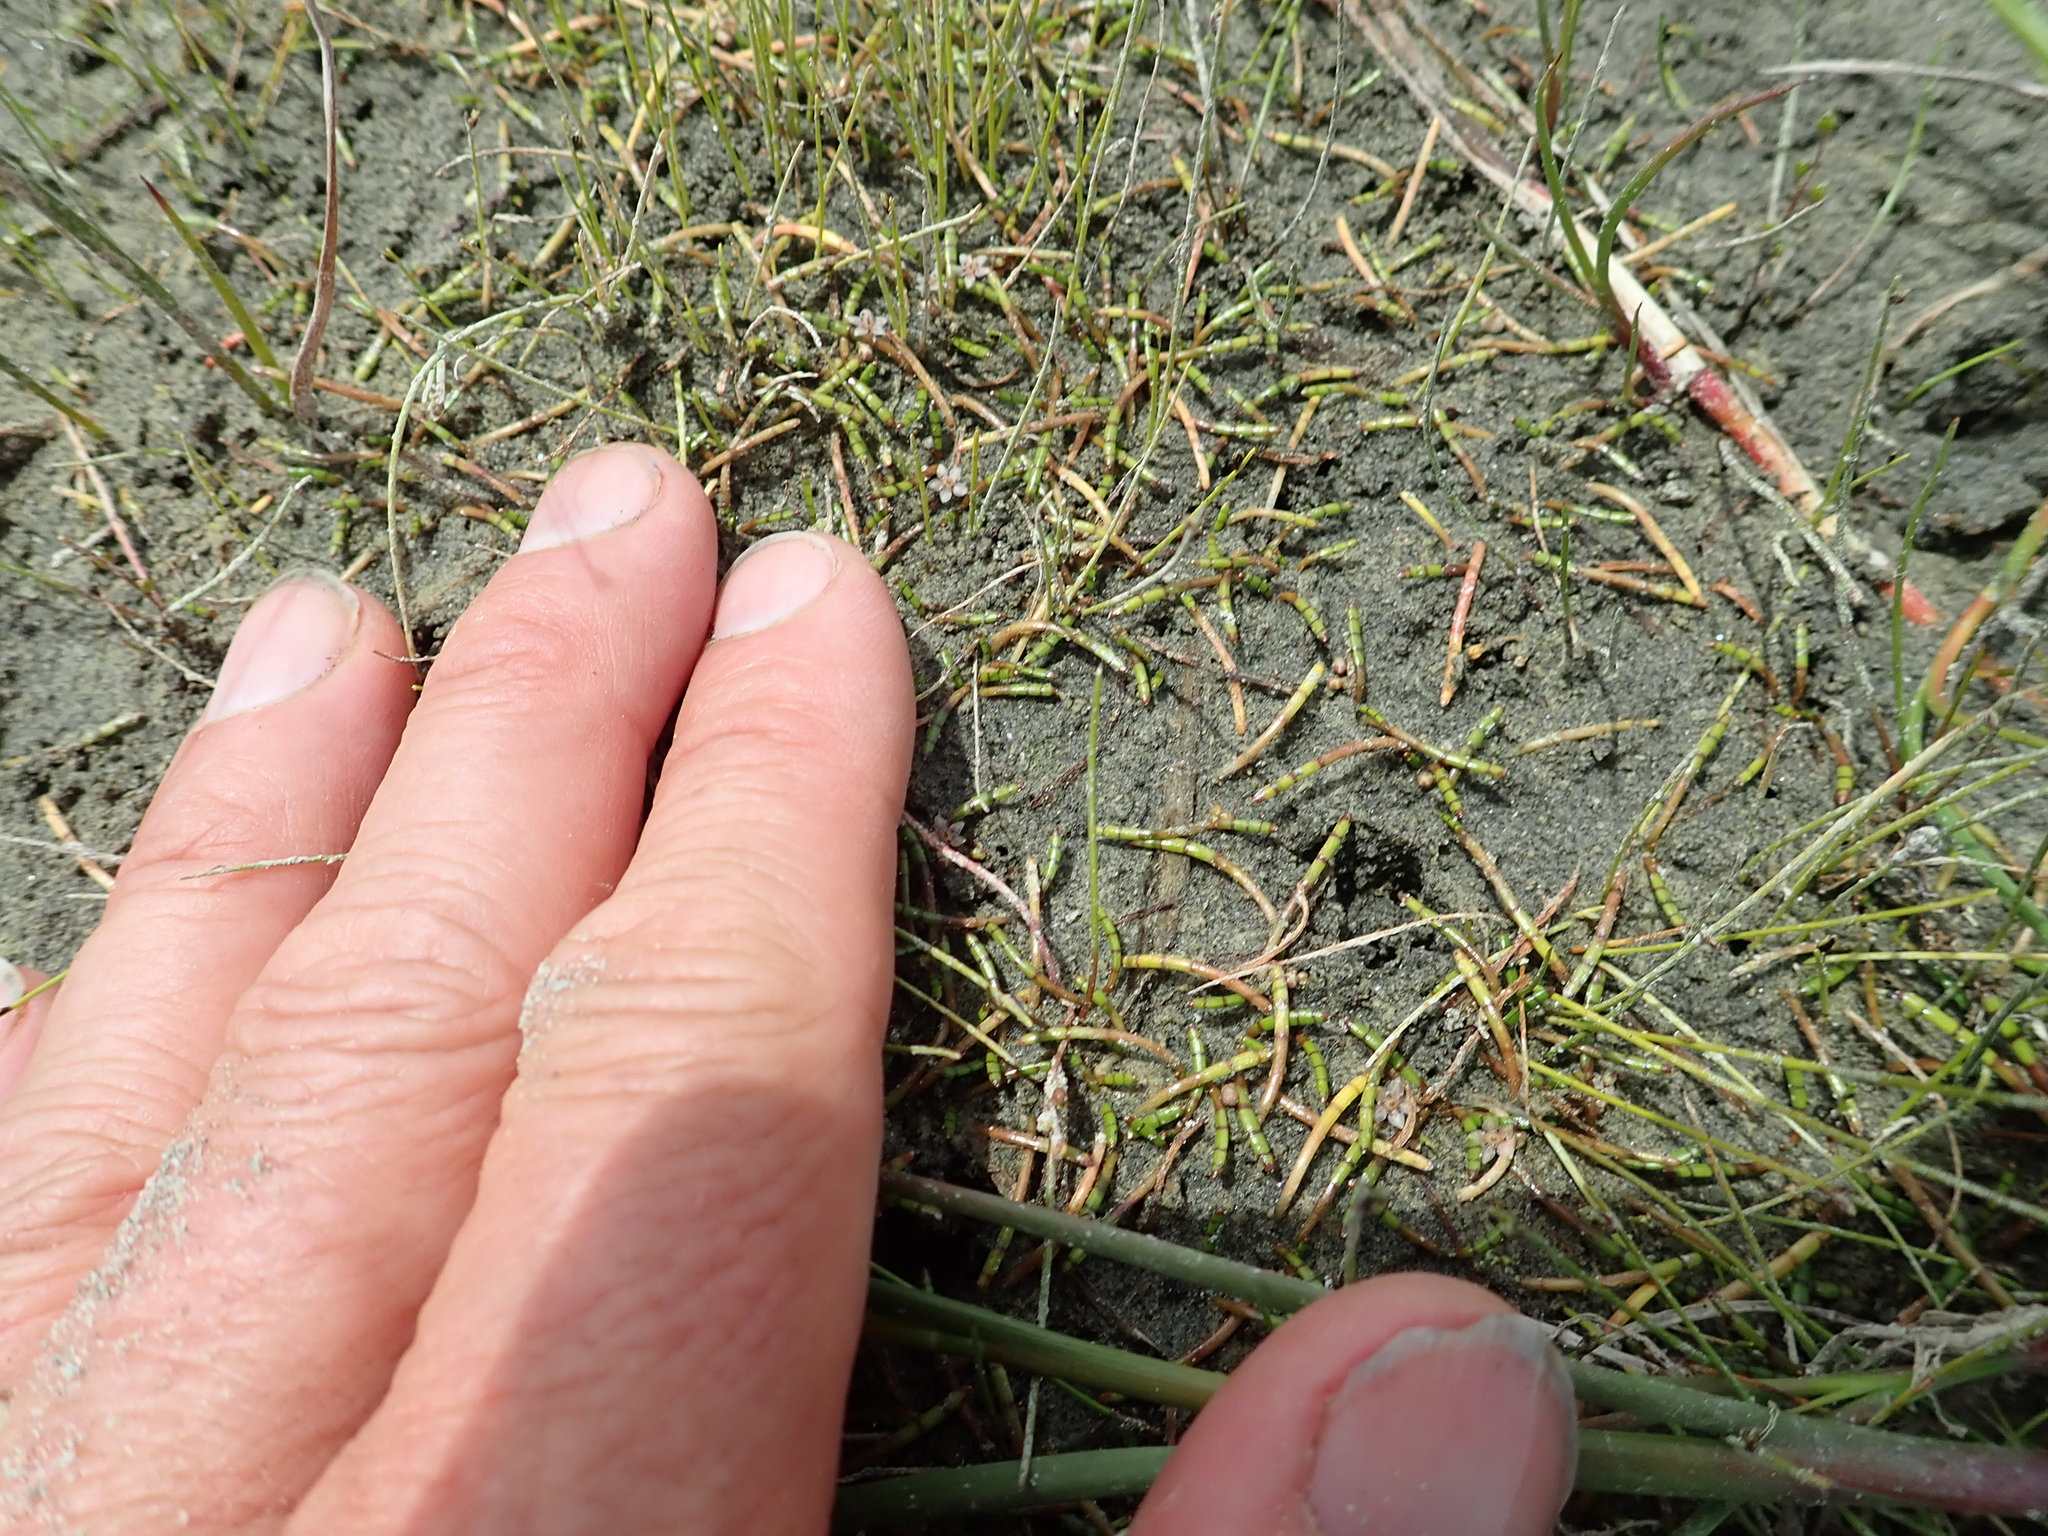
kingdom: Plantae
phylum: Tracheophyta
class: Magnoliopsida
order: Apiales
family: Apiaceae
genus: Lilaeopsis
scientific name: Lilaeopsis novae-zelandiae
